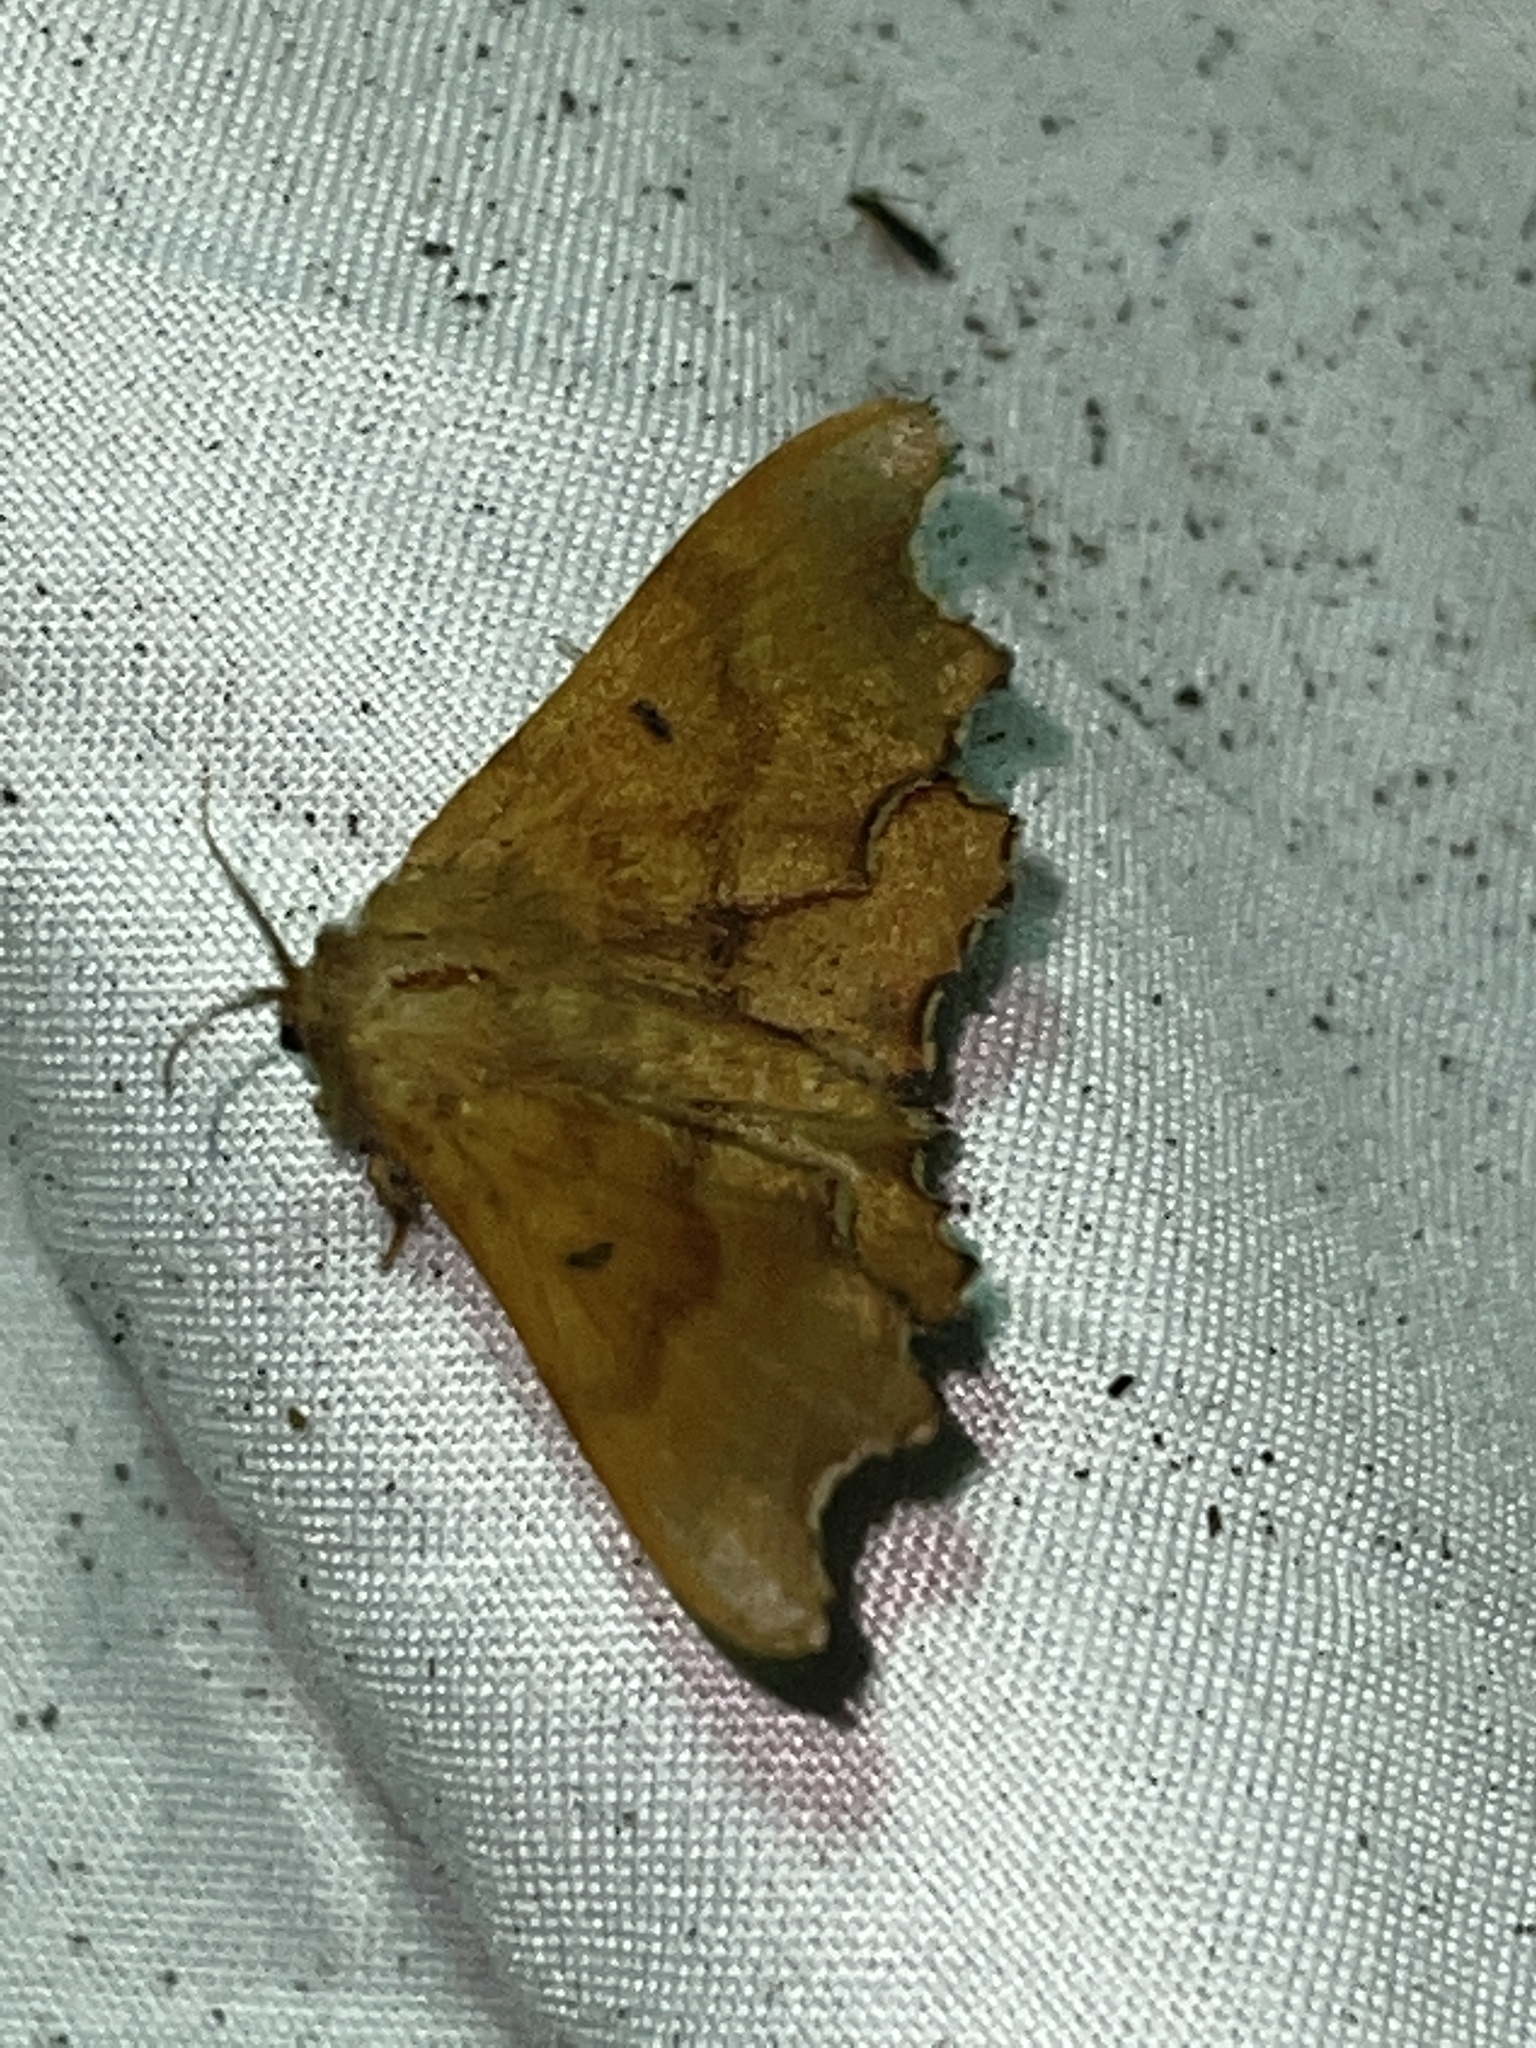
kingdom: Animalia
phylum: Arthropoda
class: Insecta
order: Lepidoptera
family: Mimallonidae
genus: Lacosoma
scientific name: Lacosoma chiridota
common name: Scalloped sack-bearer moth
